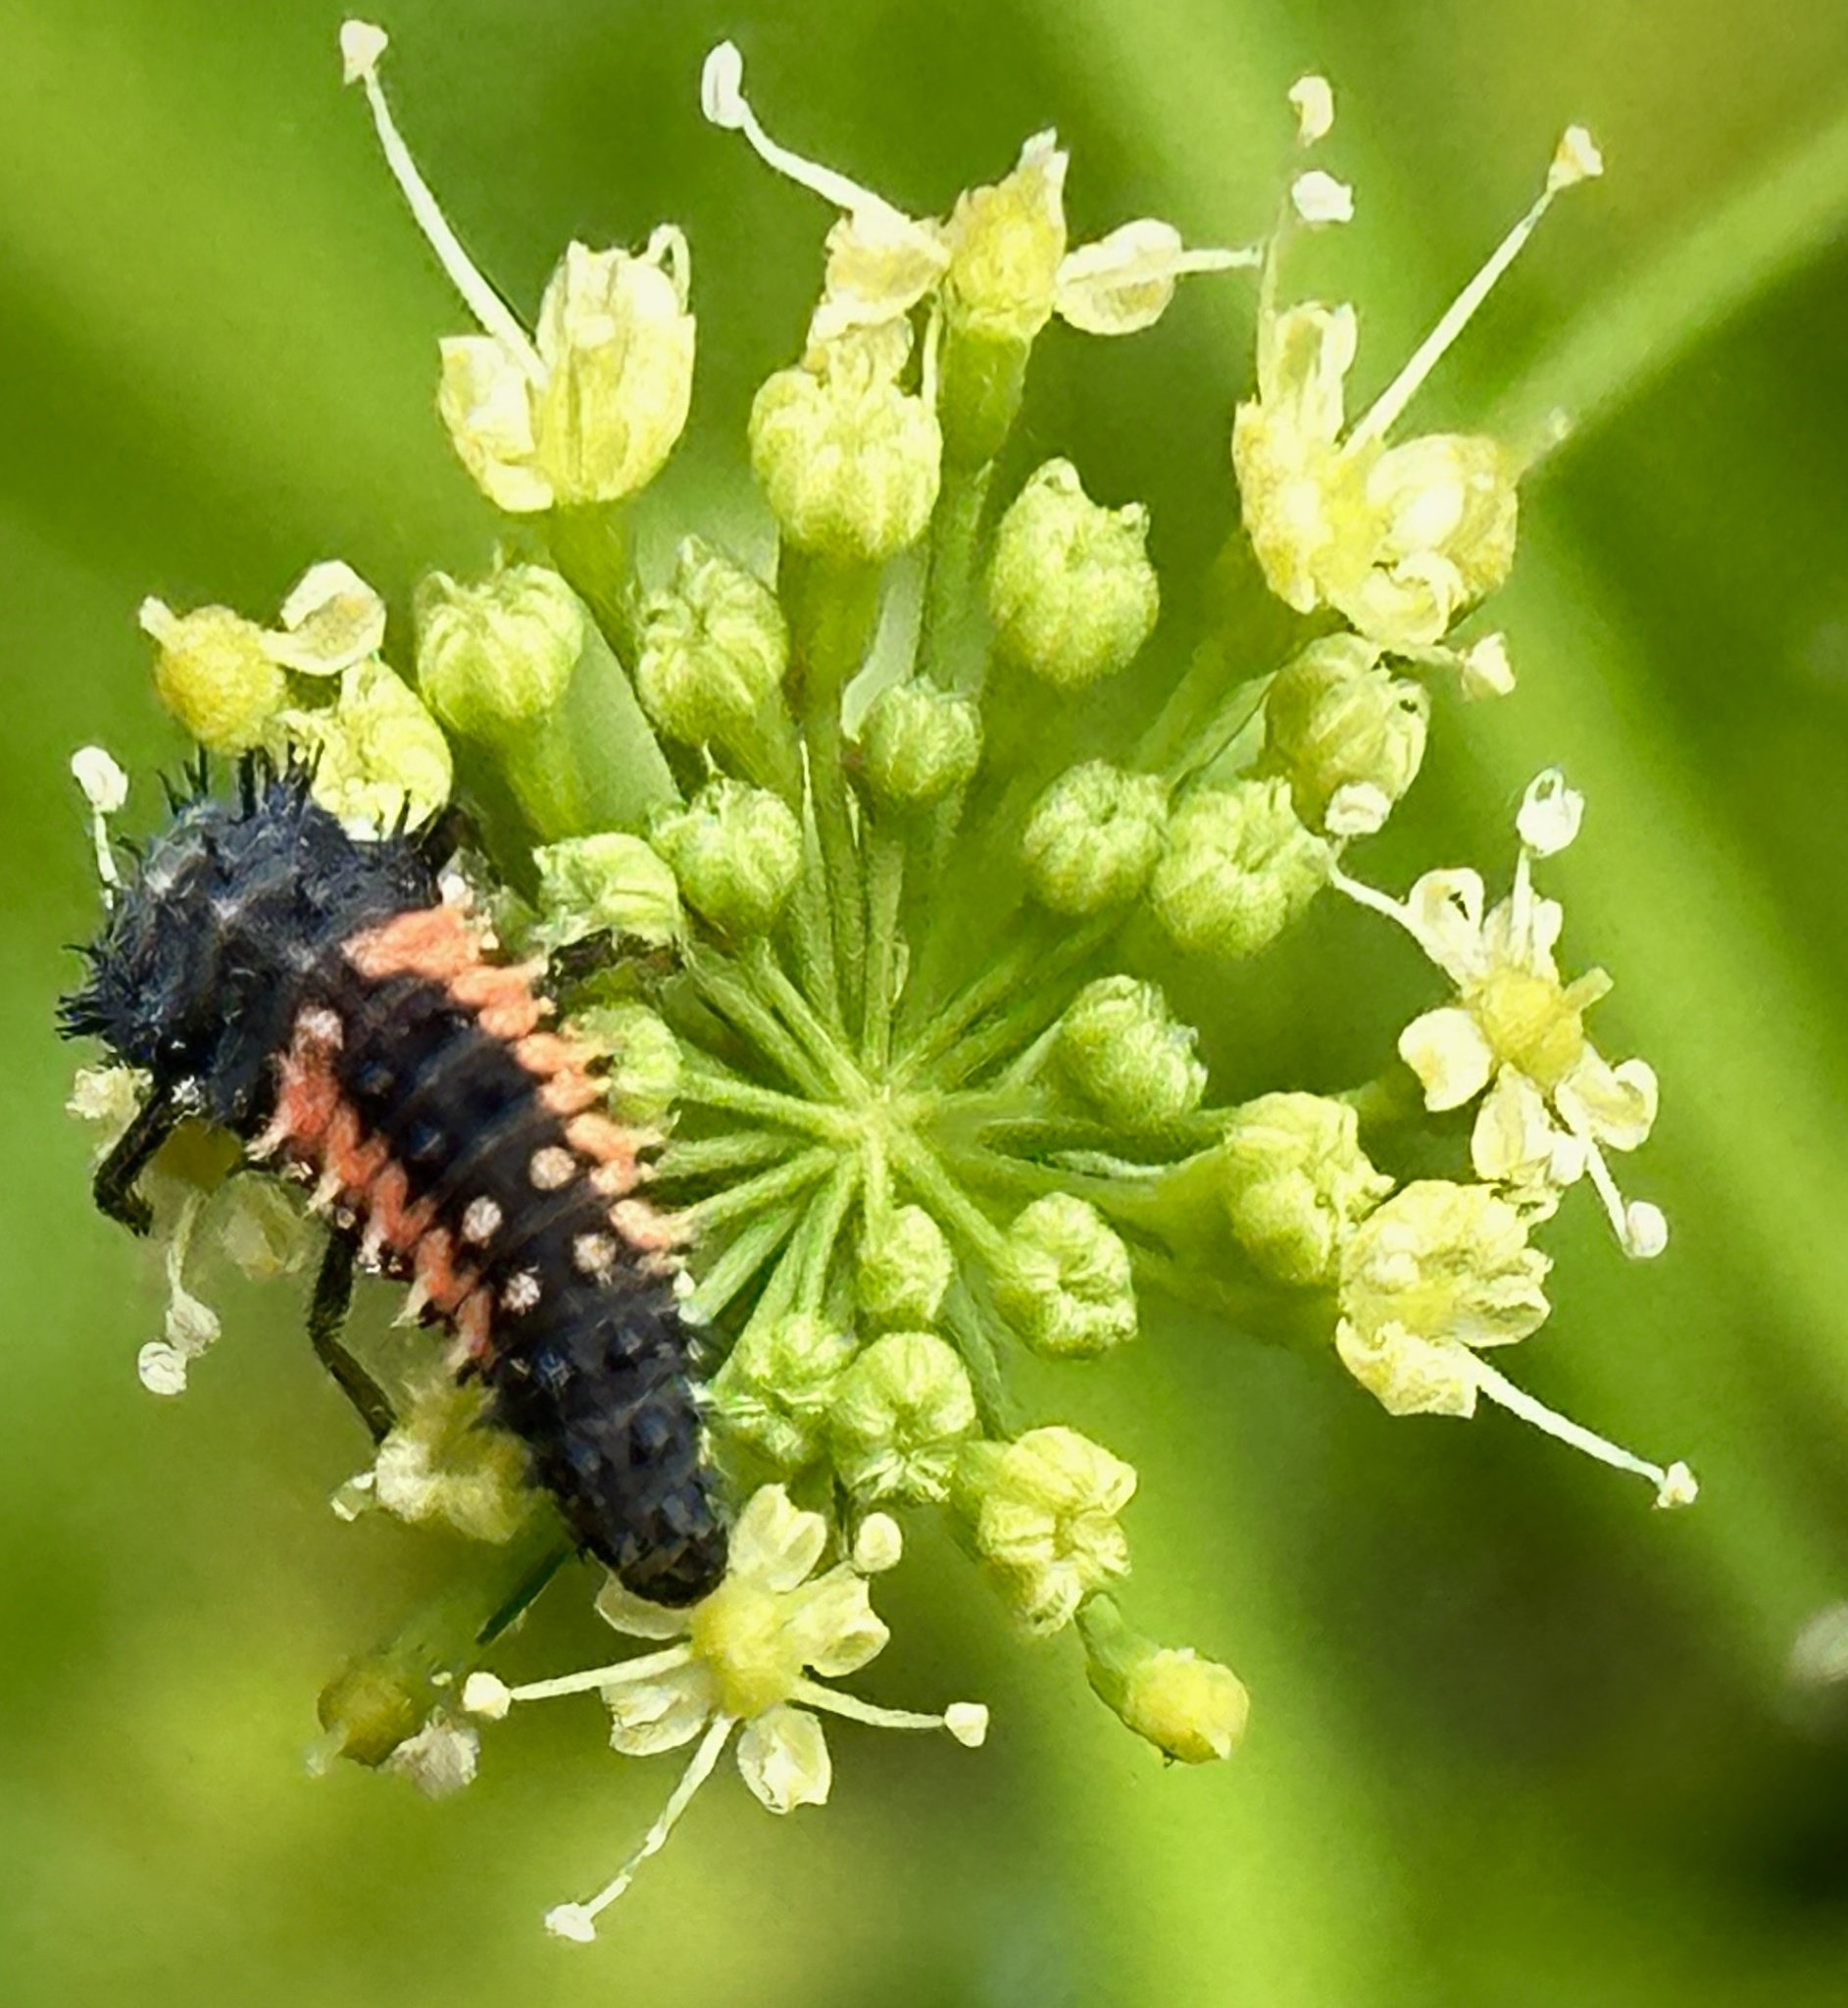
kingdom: Animalia
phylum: Arthropoda
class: Insecta
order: Coleoptera
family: Coccinellidae
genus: Harmonia
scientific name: Harmonia axyridis
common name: Harlequin ladybird
